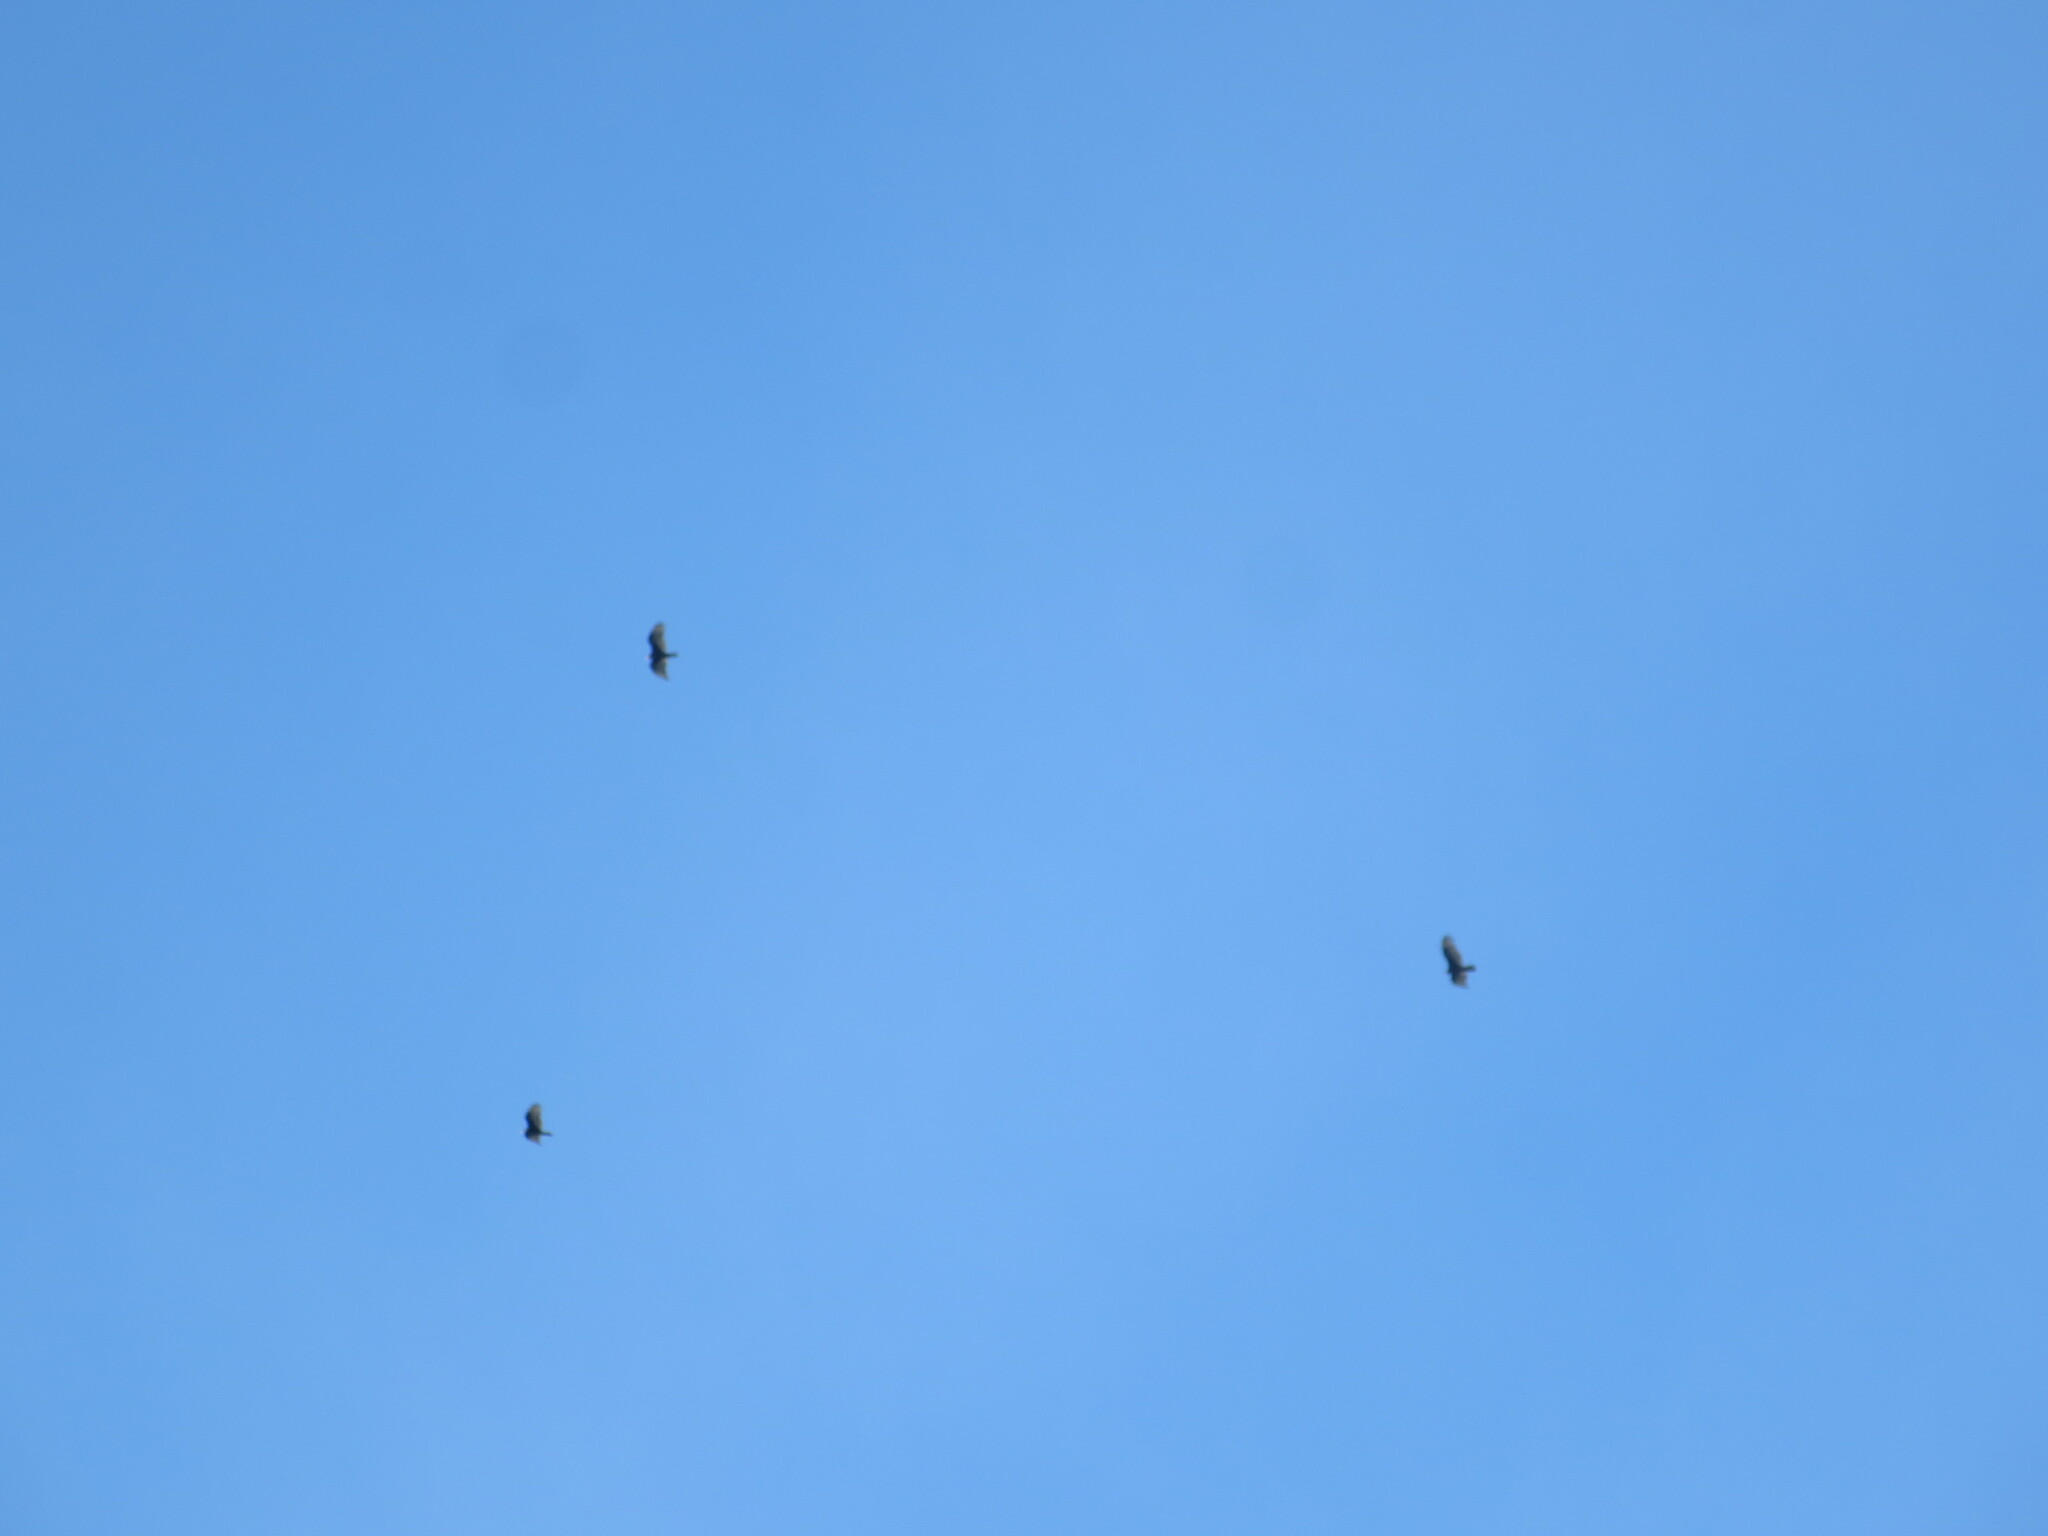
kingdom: Animalia
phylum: Chordata
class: Aves
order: Accipitriformes
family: Cathartidae
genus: Cathartes
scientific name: Cathartes aura
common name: Turkey vulture
